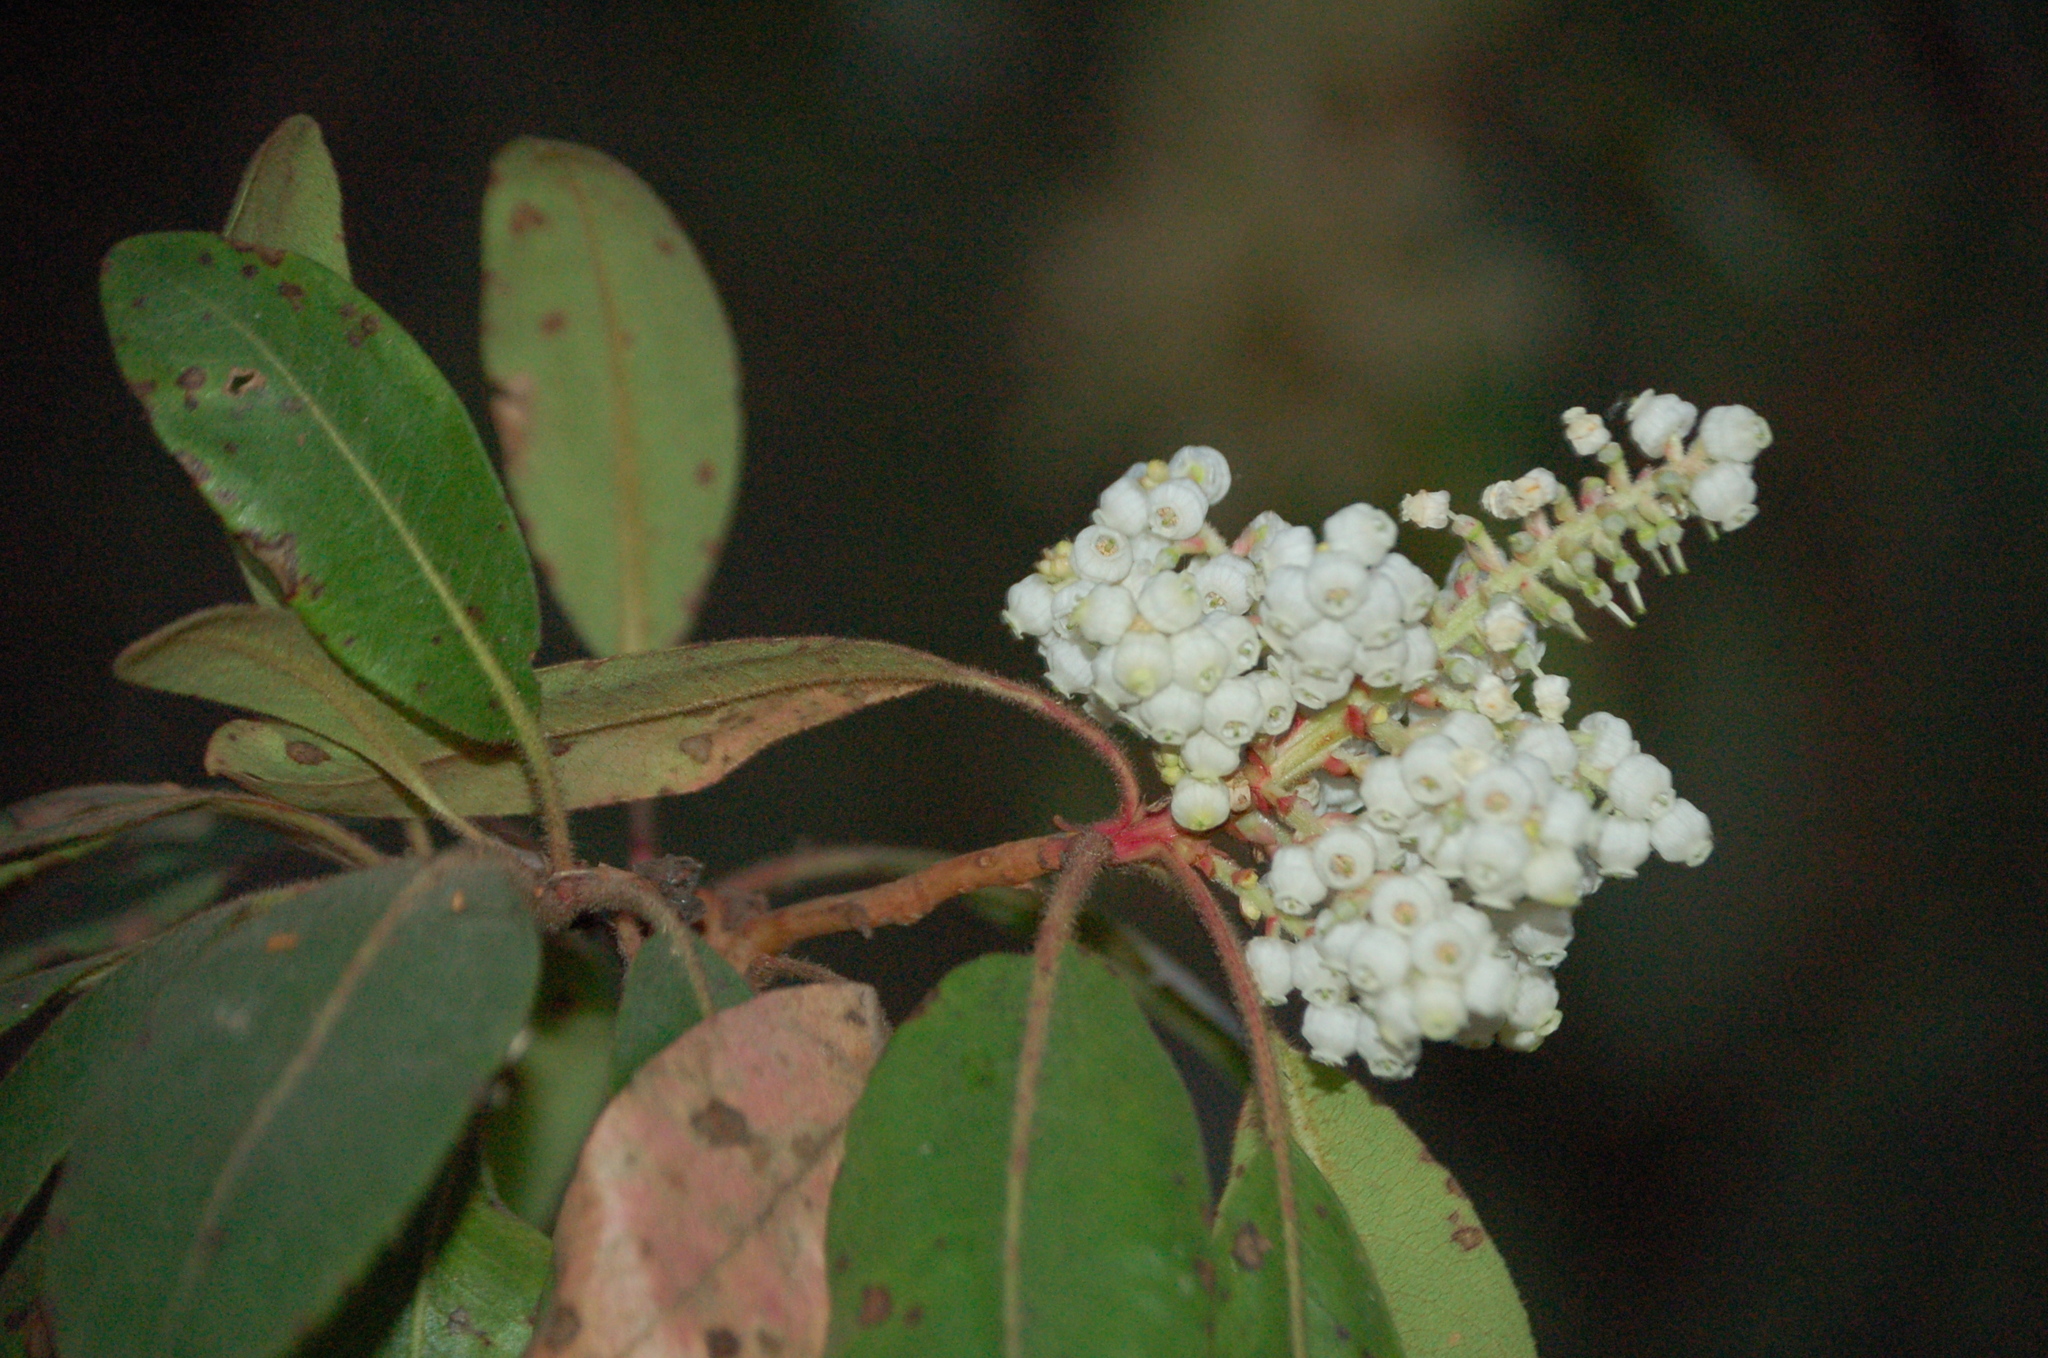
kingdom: Plantae
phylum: Tracheophyta
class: Magnoliopsida
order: Ericales
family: Ericaceae
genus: Arbutus
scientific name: Arbutus xalapensis
